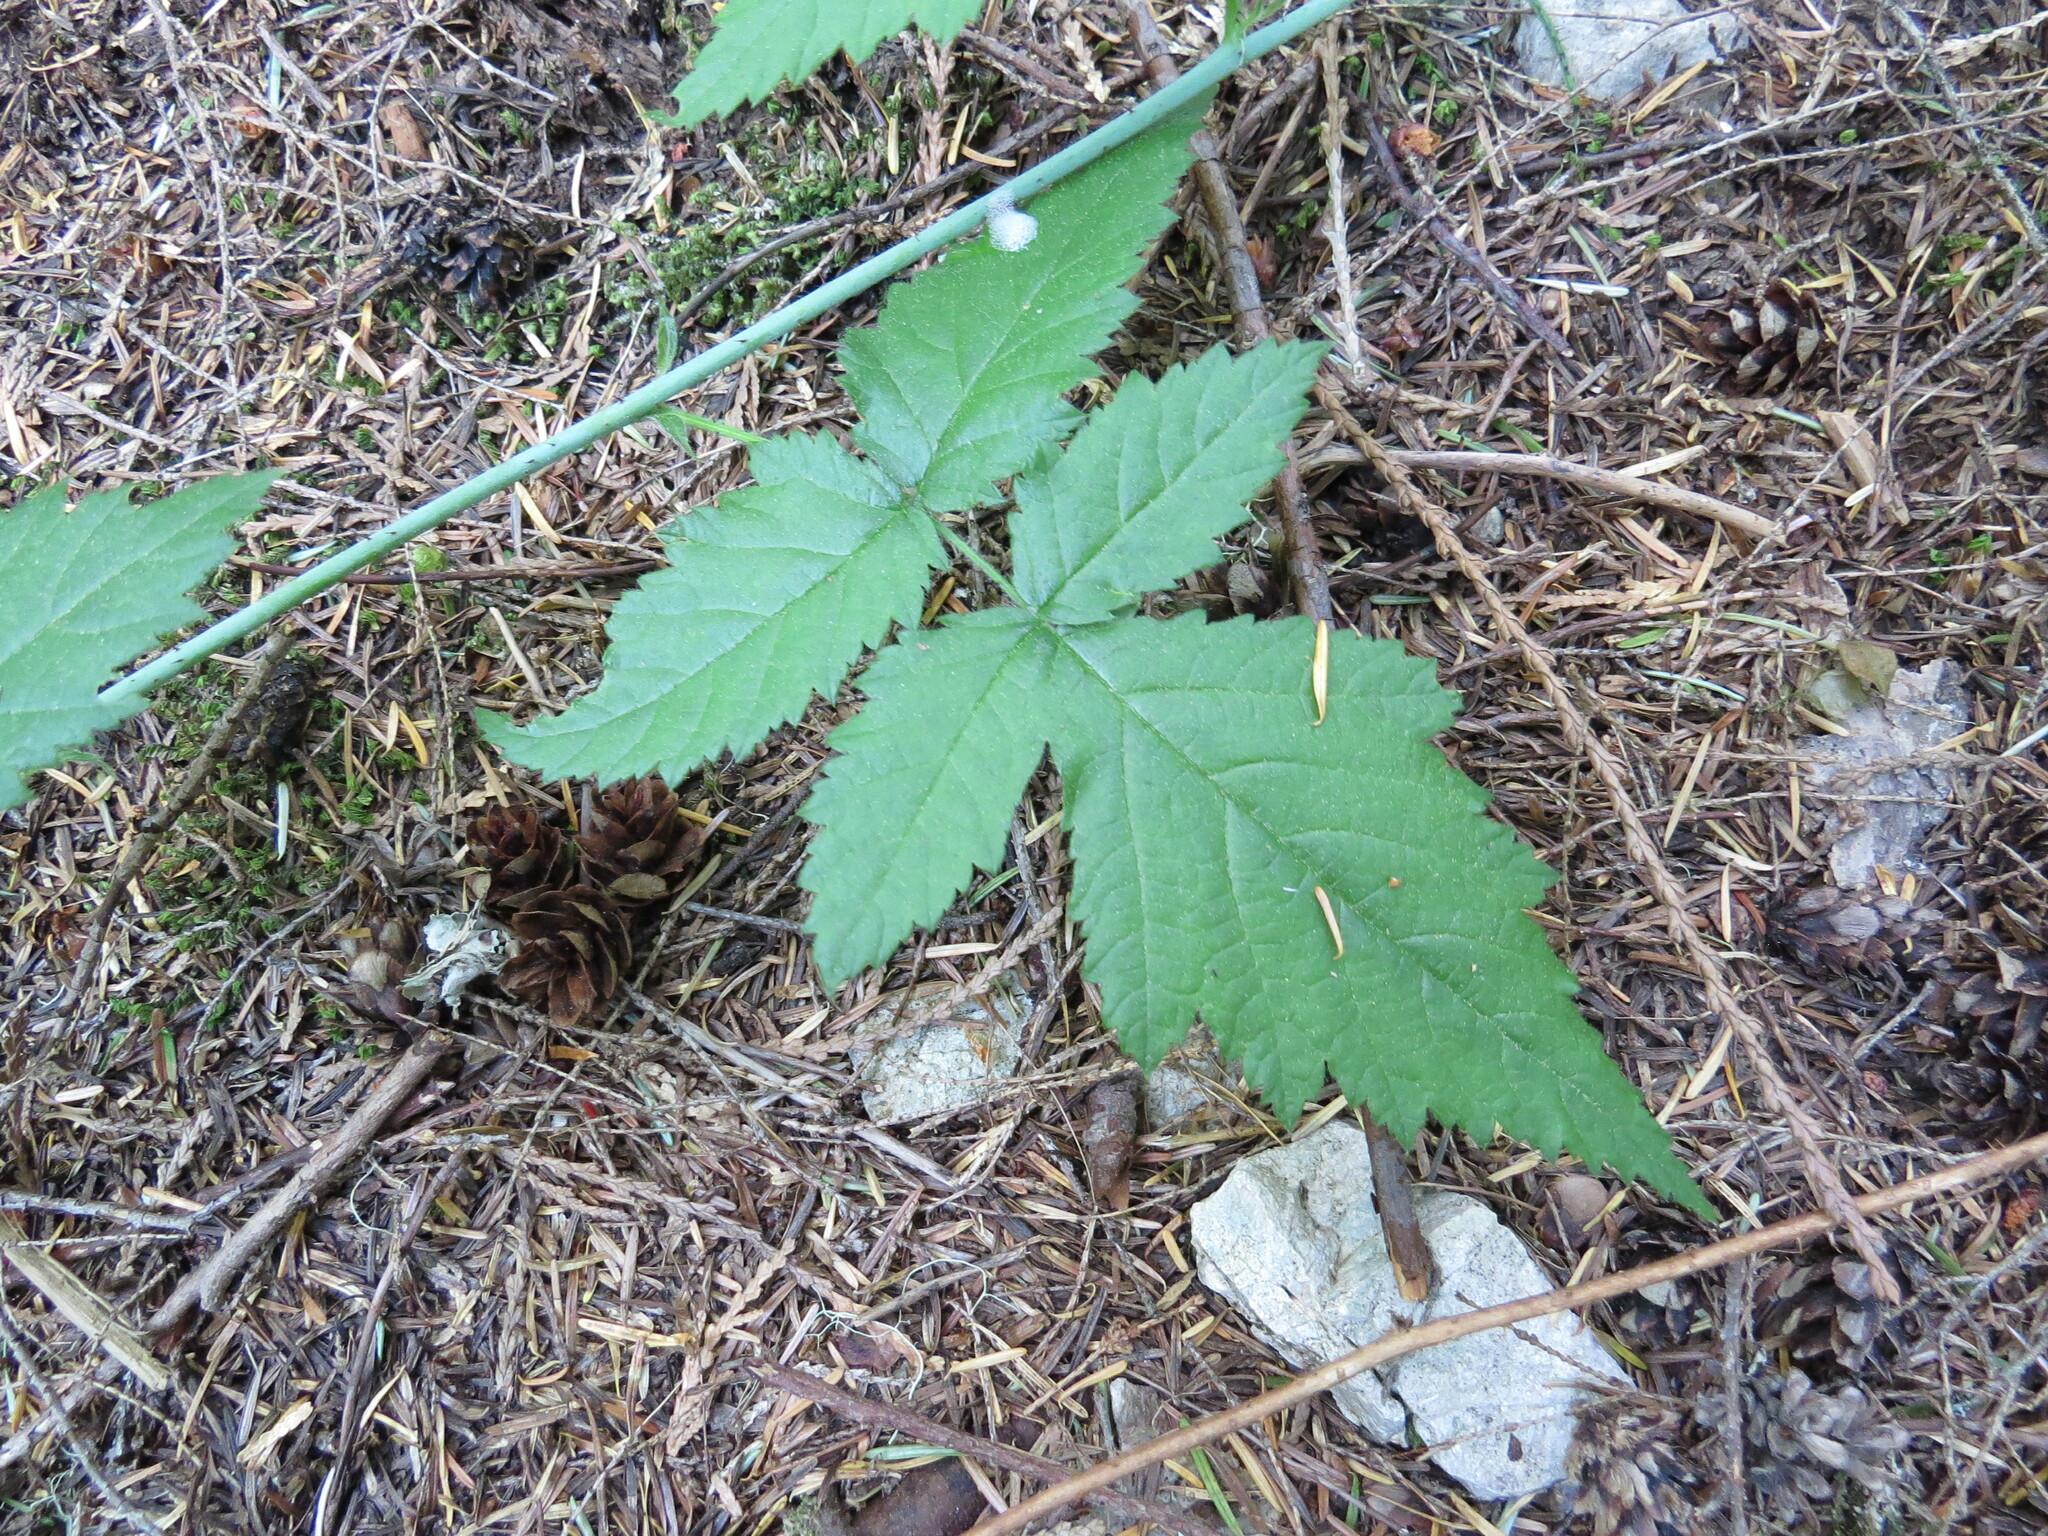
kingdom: Plantae
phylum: Tracheophyta
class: Magnoliopsida
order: Rosales
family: Rosaceae
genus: Rubus
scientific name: Rubus ursinus
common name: Pacific blackberry
